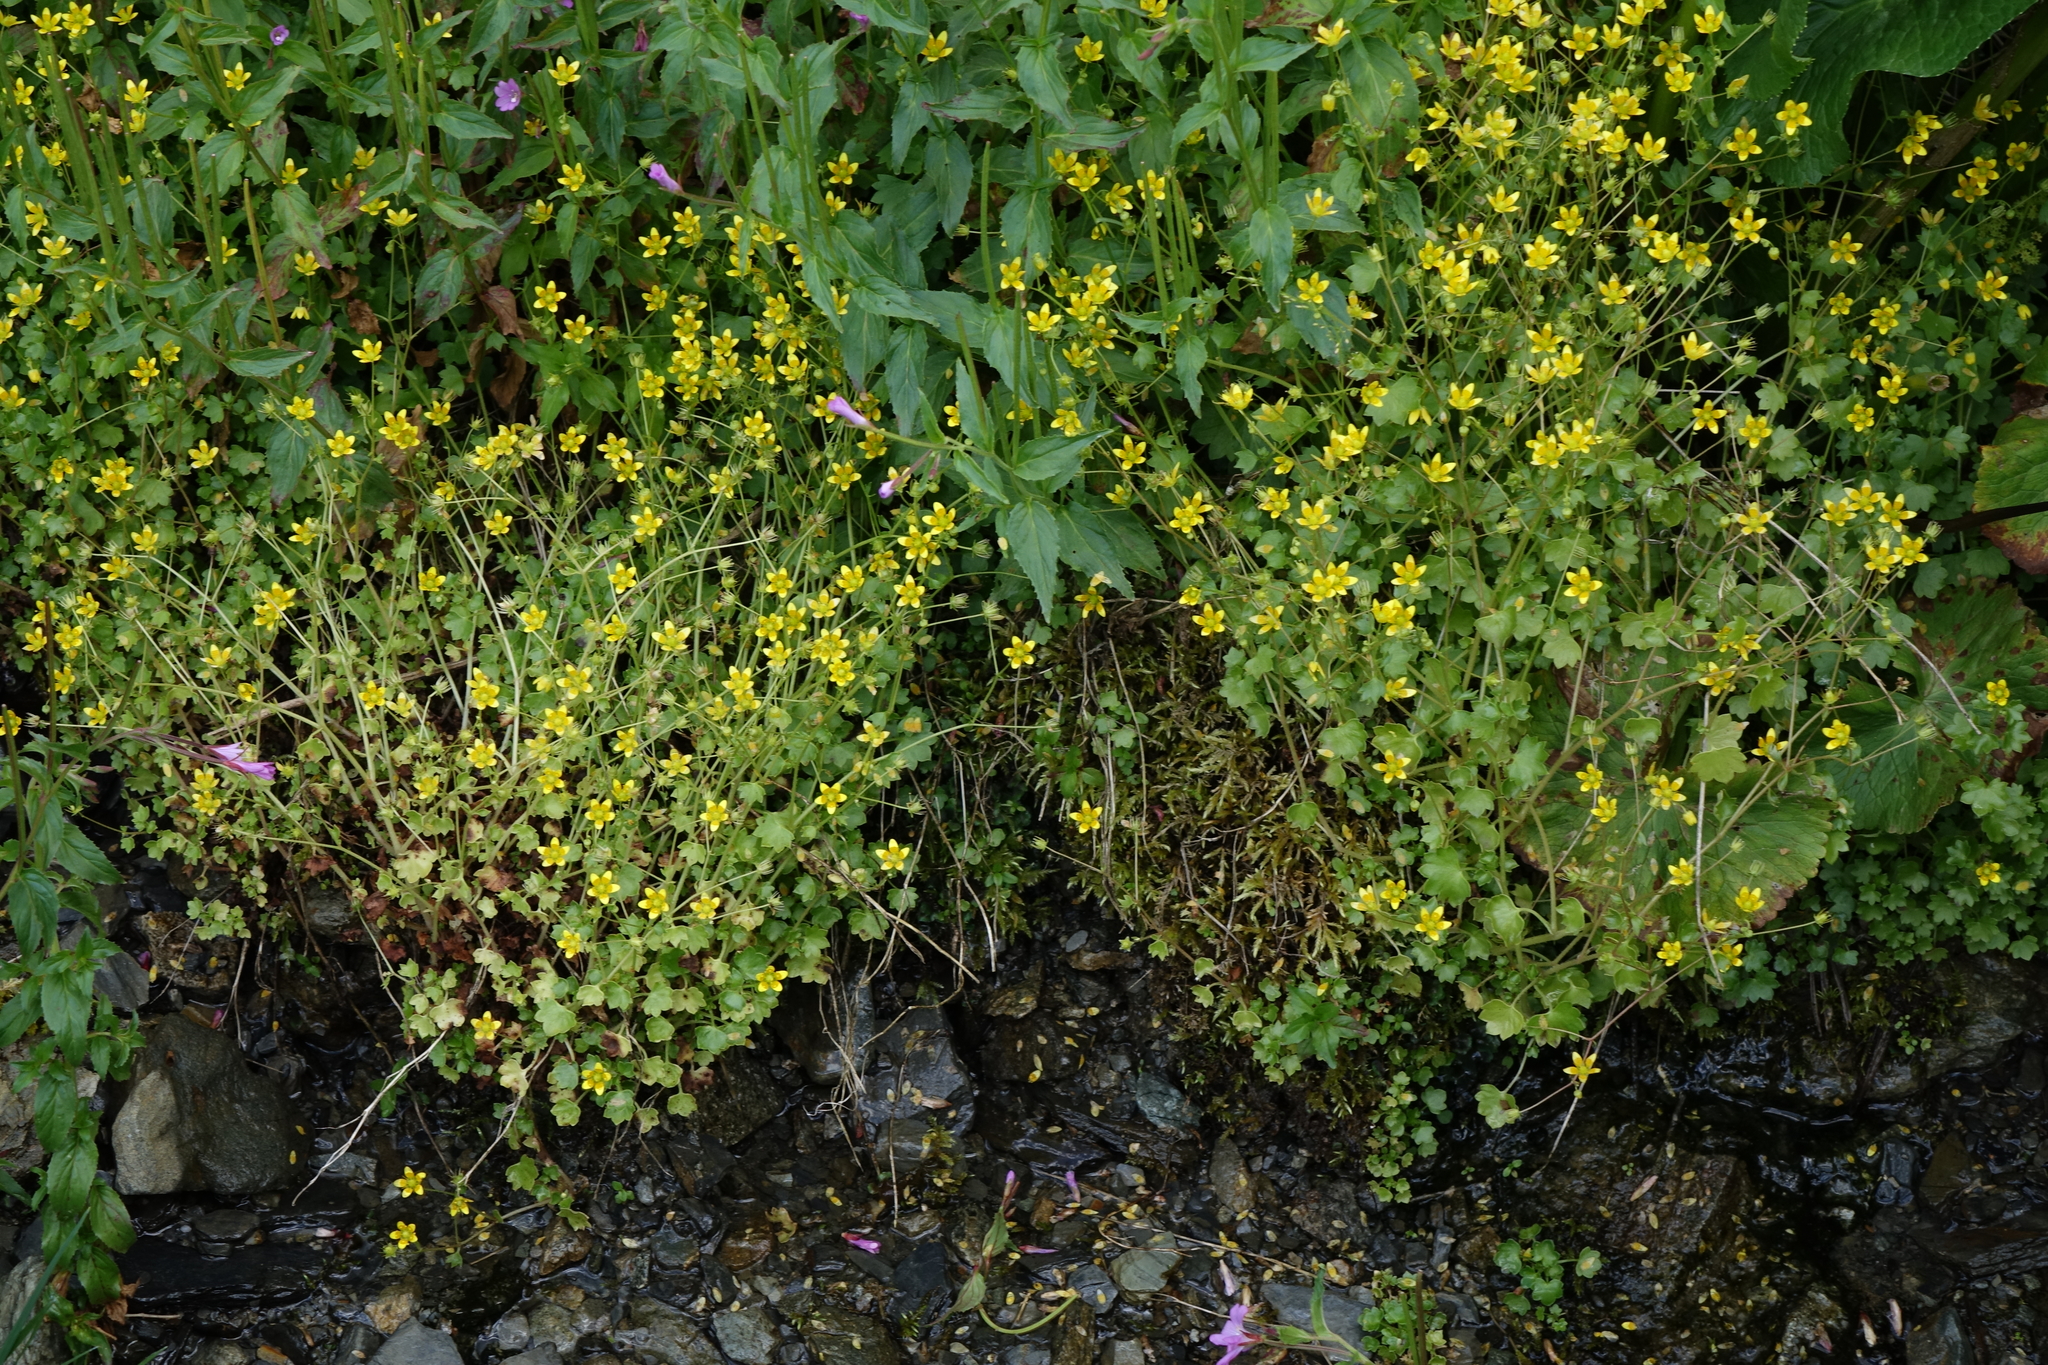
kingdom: Plantae
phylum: Tracheophyta
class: Magnoliopsida
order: Saxifragales
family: Saxifragaceae
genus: Saxifraga
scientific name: Saxifraga cymbalaria
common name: Celandine saxifrage
